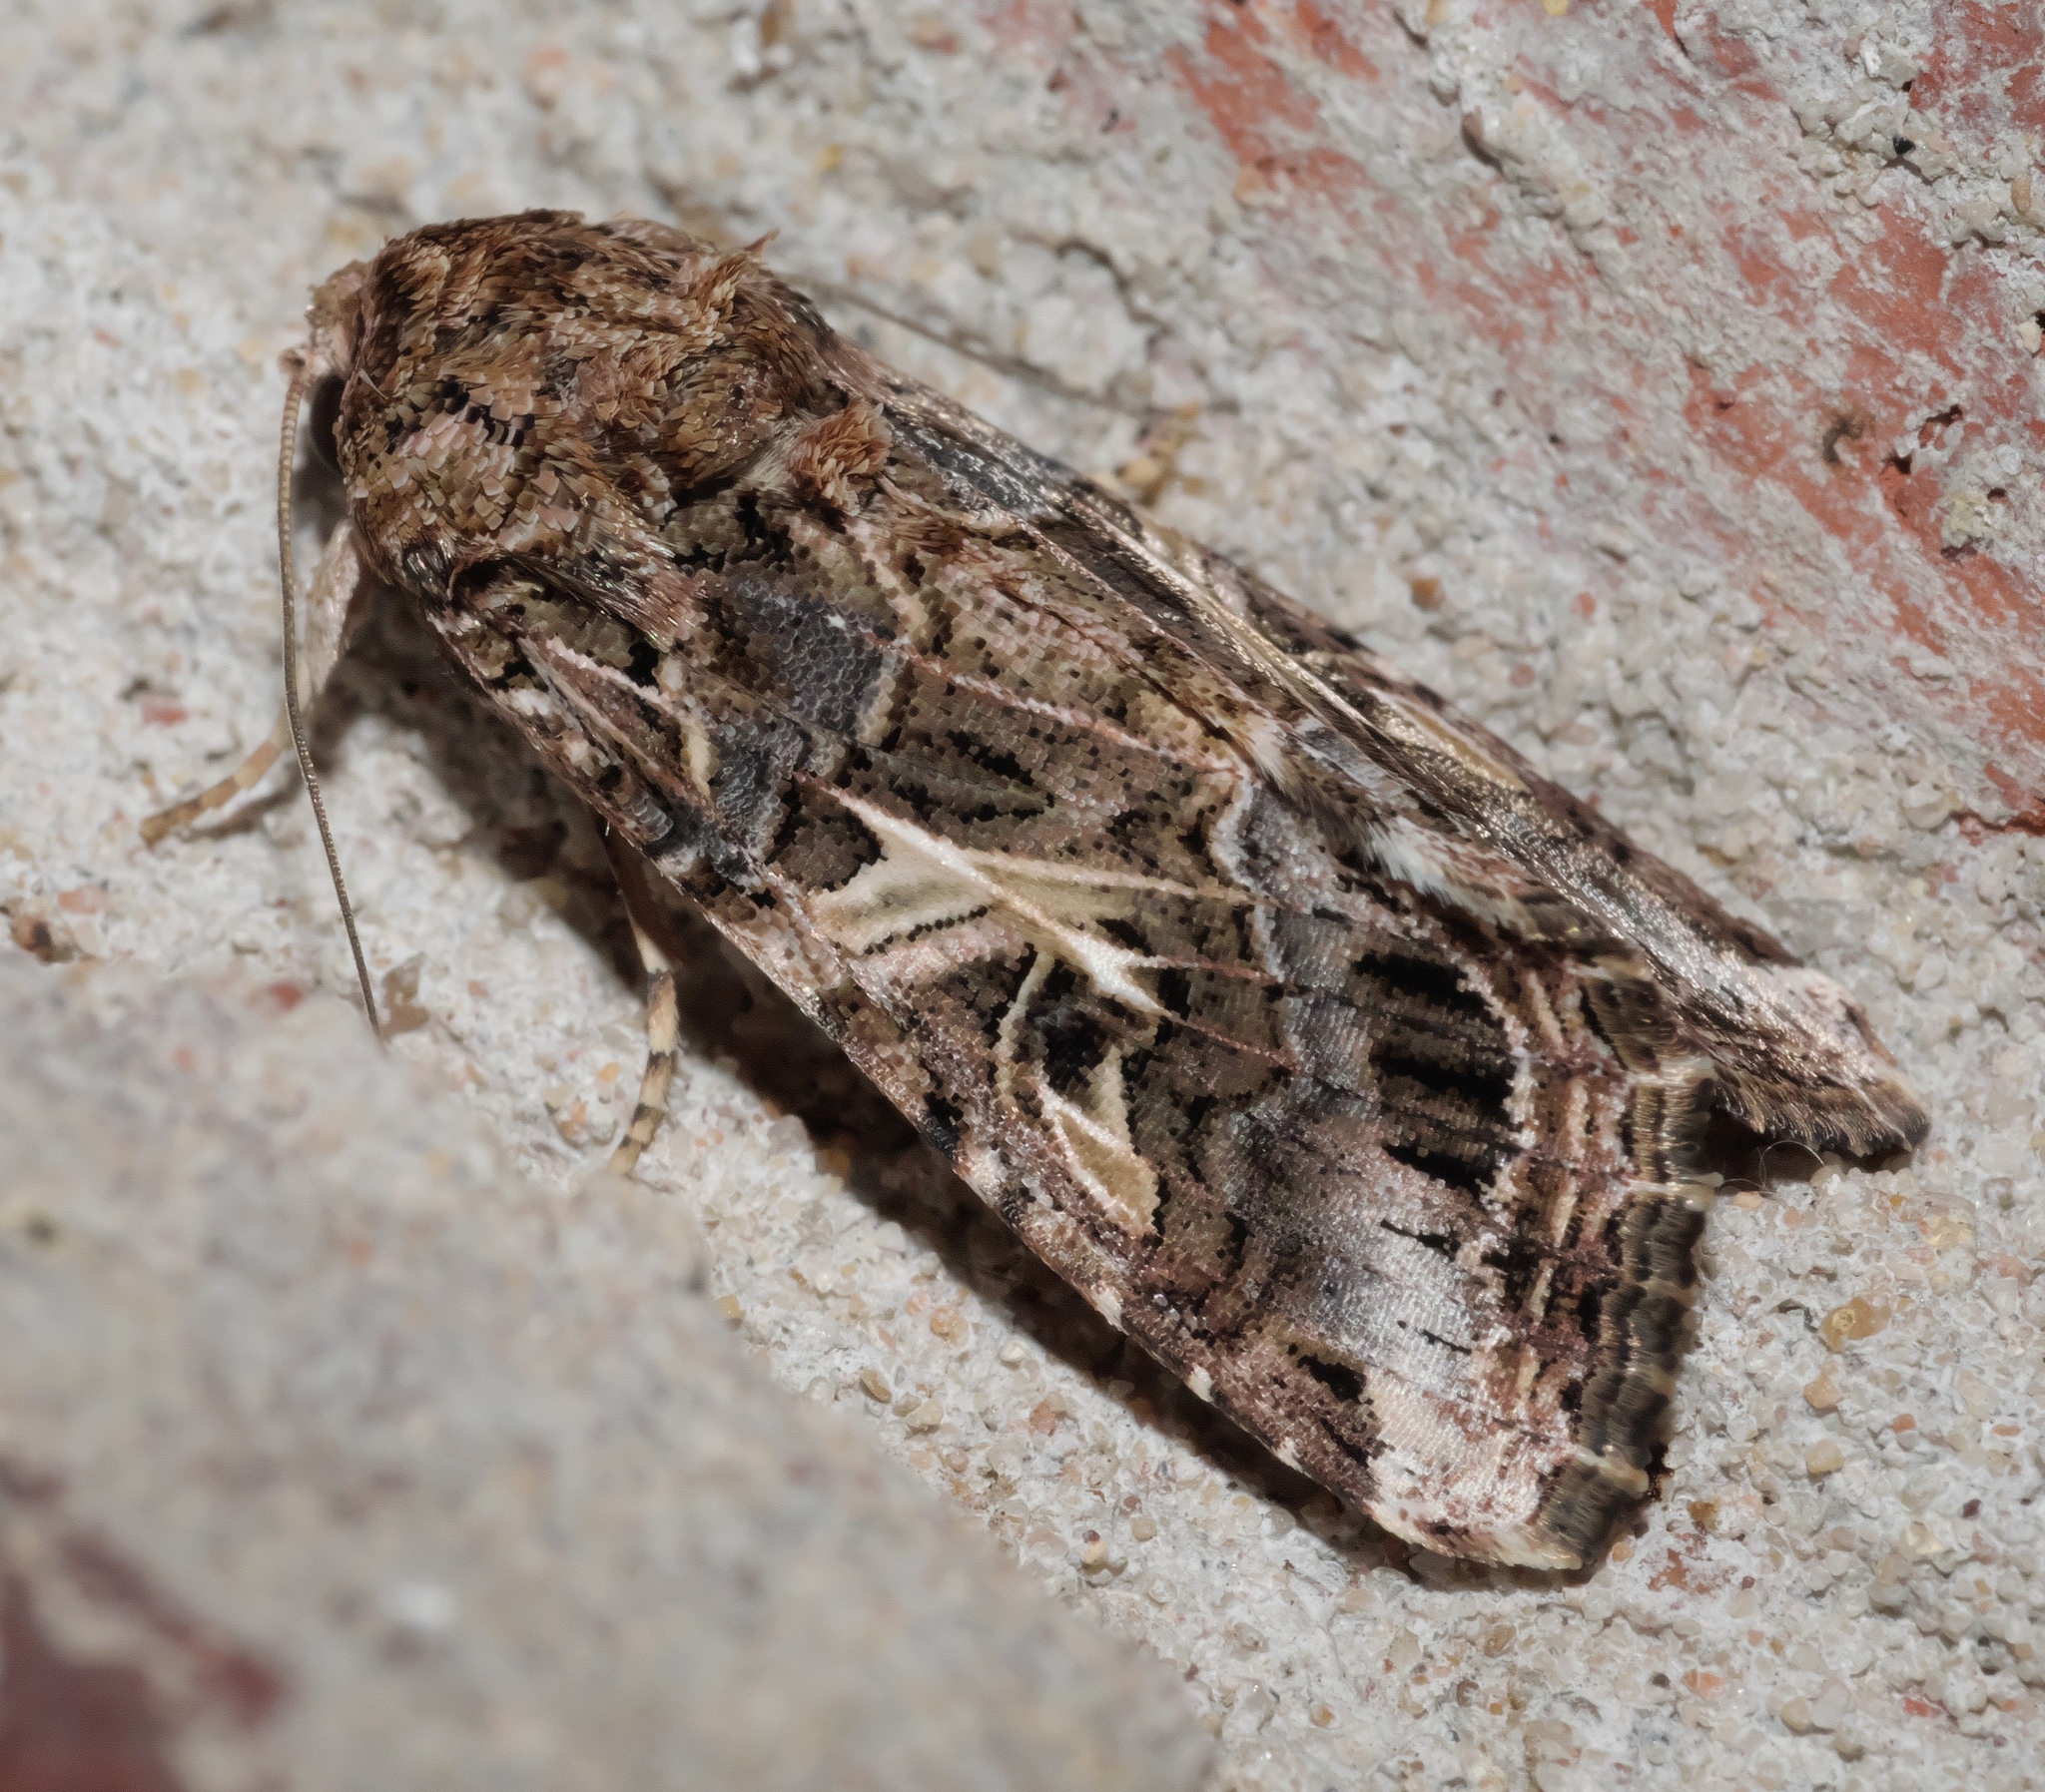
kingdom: Animalia
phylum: Arthropoda
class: Insecta
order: Lepidoptera
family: Noctuidae
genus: Spodoptera
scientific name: Spodoptera ornithogalli
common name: Yellow-striped armyworm
